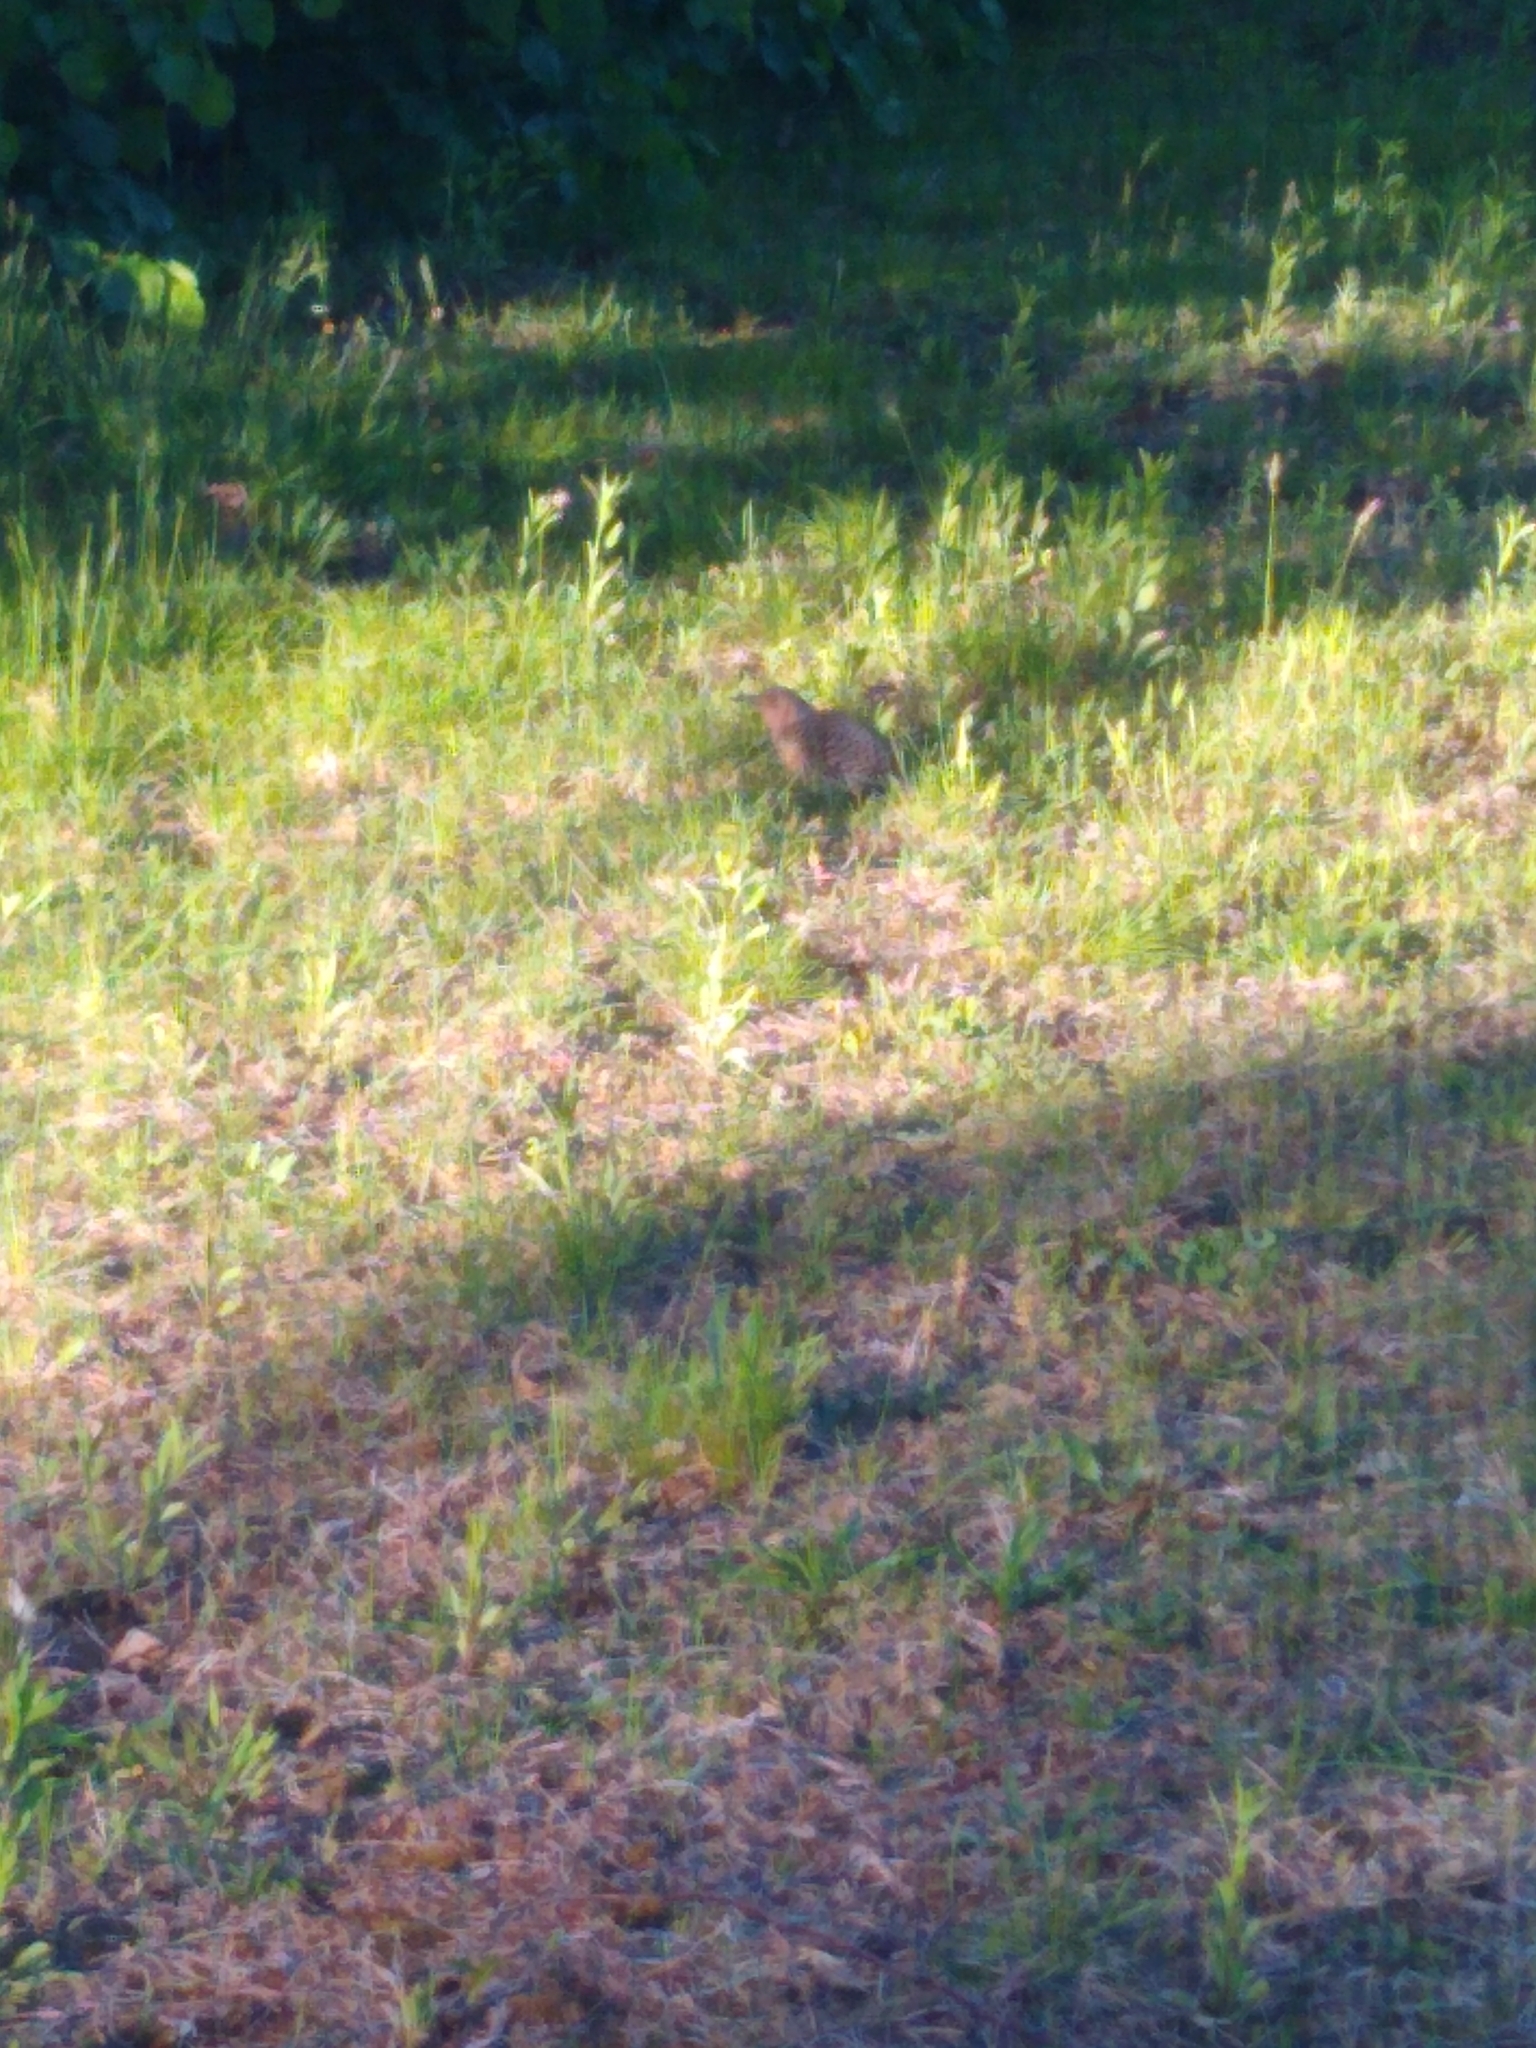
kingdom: Animalia
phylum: Chordata
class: Aves
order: Piciformes
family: Picidae
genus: Colaptes
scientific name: Colaptes auratus
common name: Northern flicker
